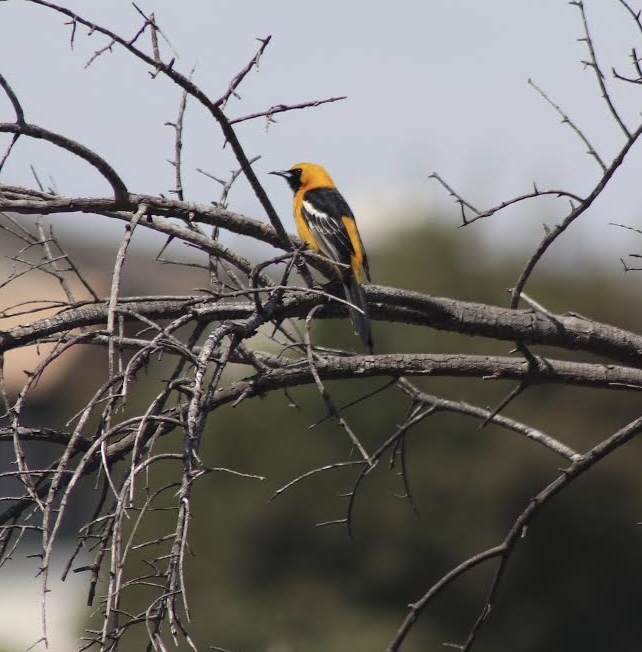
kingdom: Animalia
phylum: Chordata
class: Aves
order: Passeriformes
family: Icteridae
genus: Icterus
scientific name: Icterus cucullatus
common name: Hooded oriole
